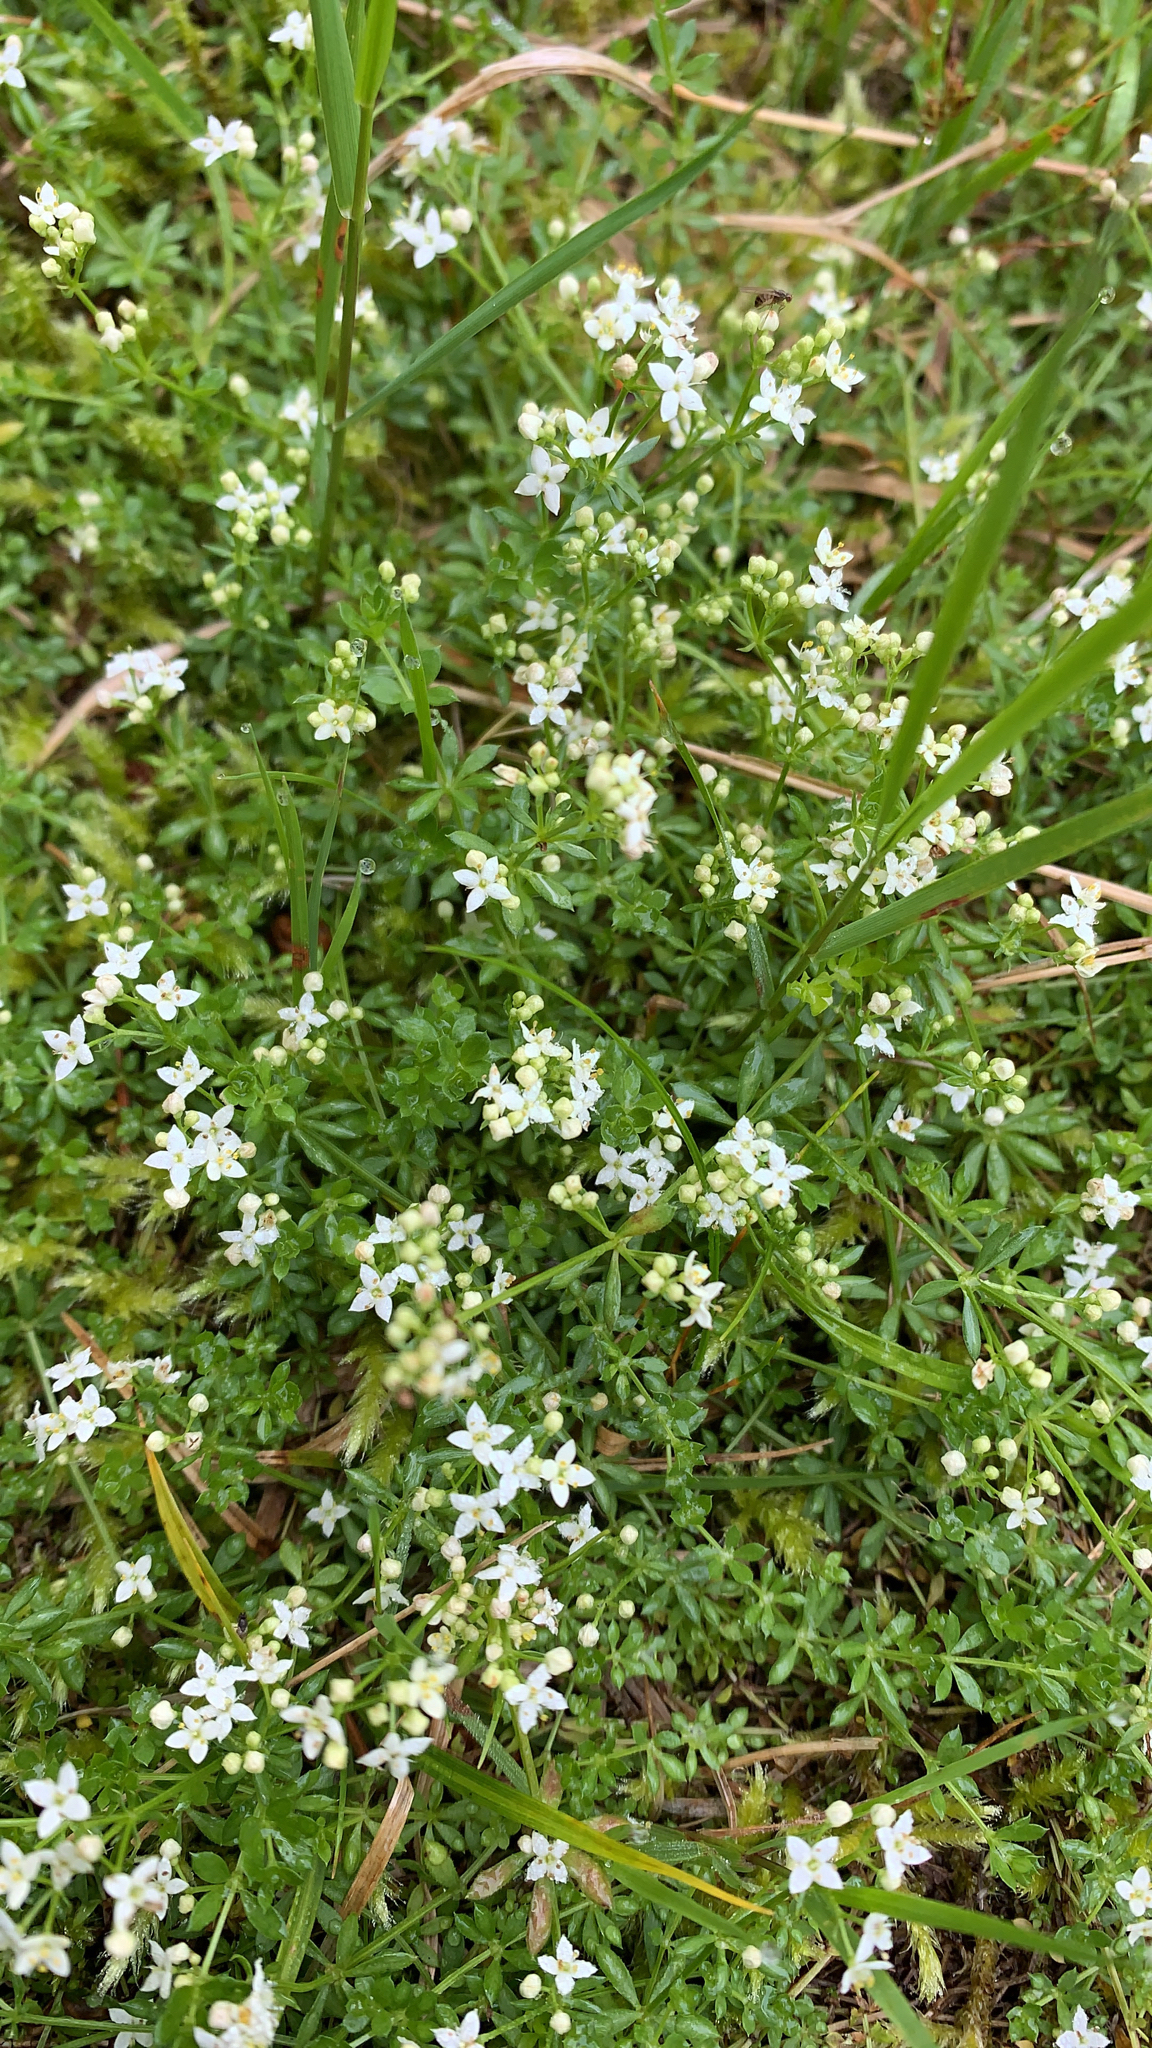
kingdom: Plantae
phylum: Tracheophyta
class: Magnoliopsida
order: Gentianales
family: Rubiaceae
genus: Galium
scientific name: Galium saxatile
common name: Heath bedstraw
